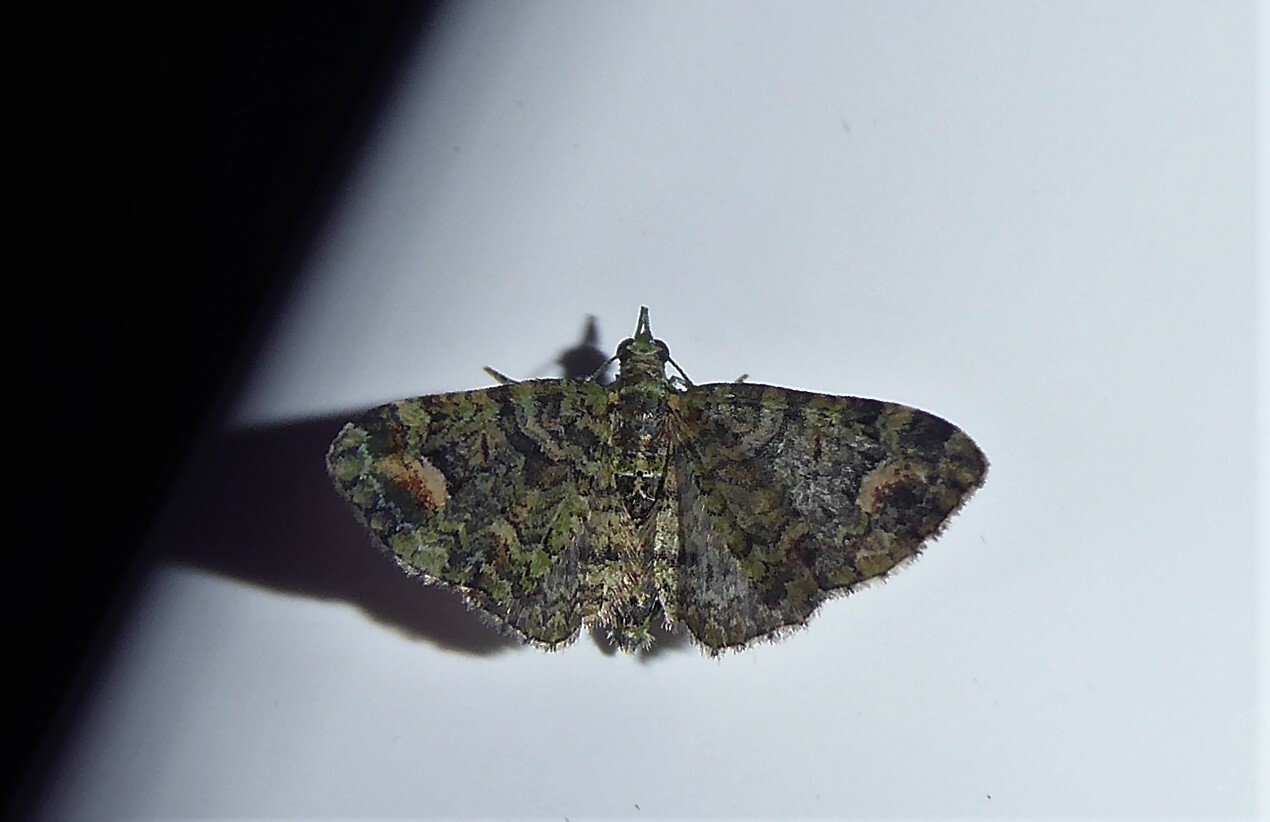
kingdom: Animalia
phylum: Arthropoda
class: Insecta
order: Lepidoptera
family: Geometridae
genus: Idaea
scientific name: Idaea mutanda
